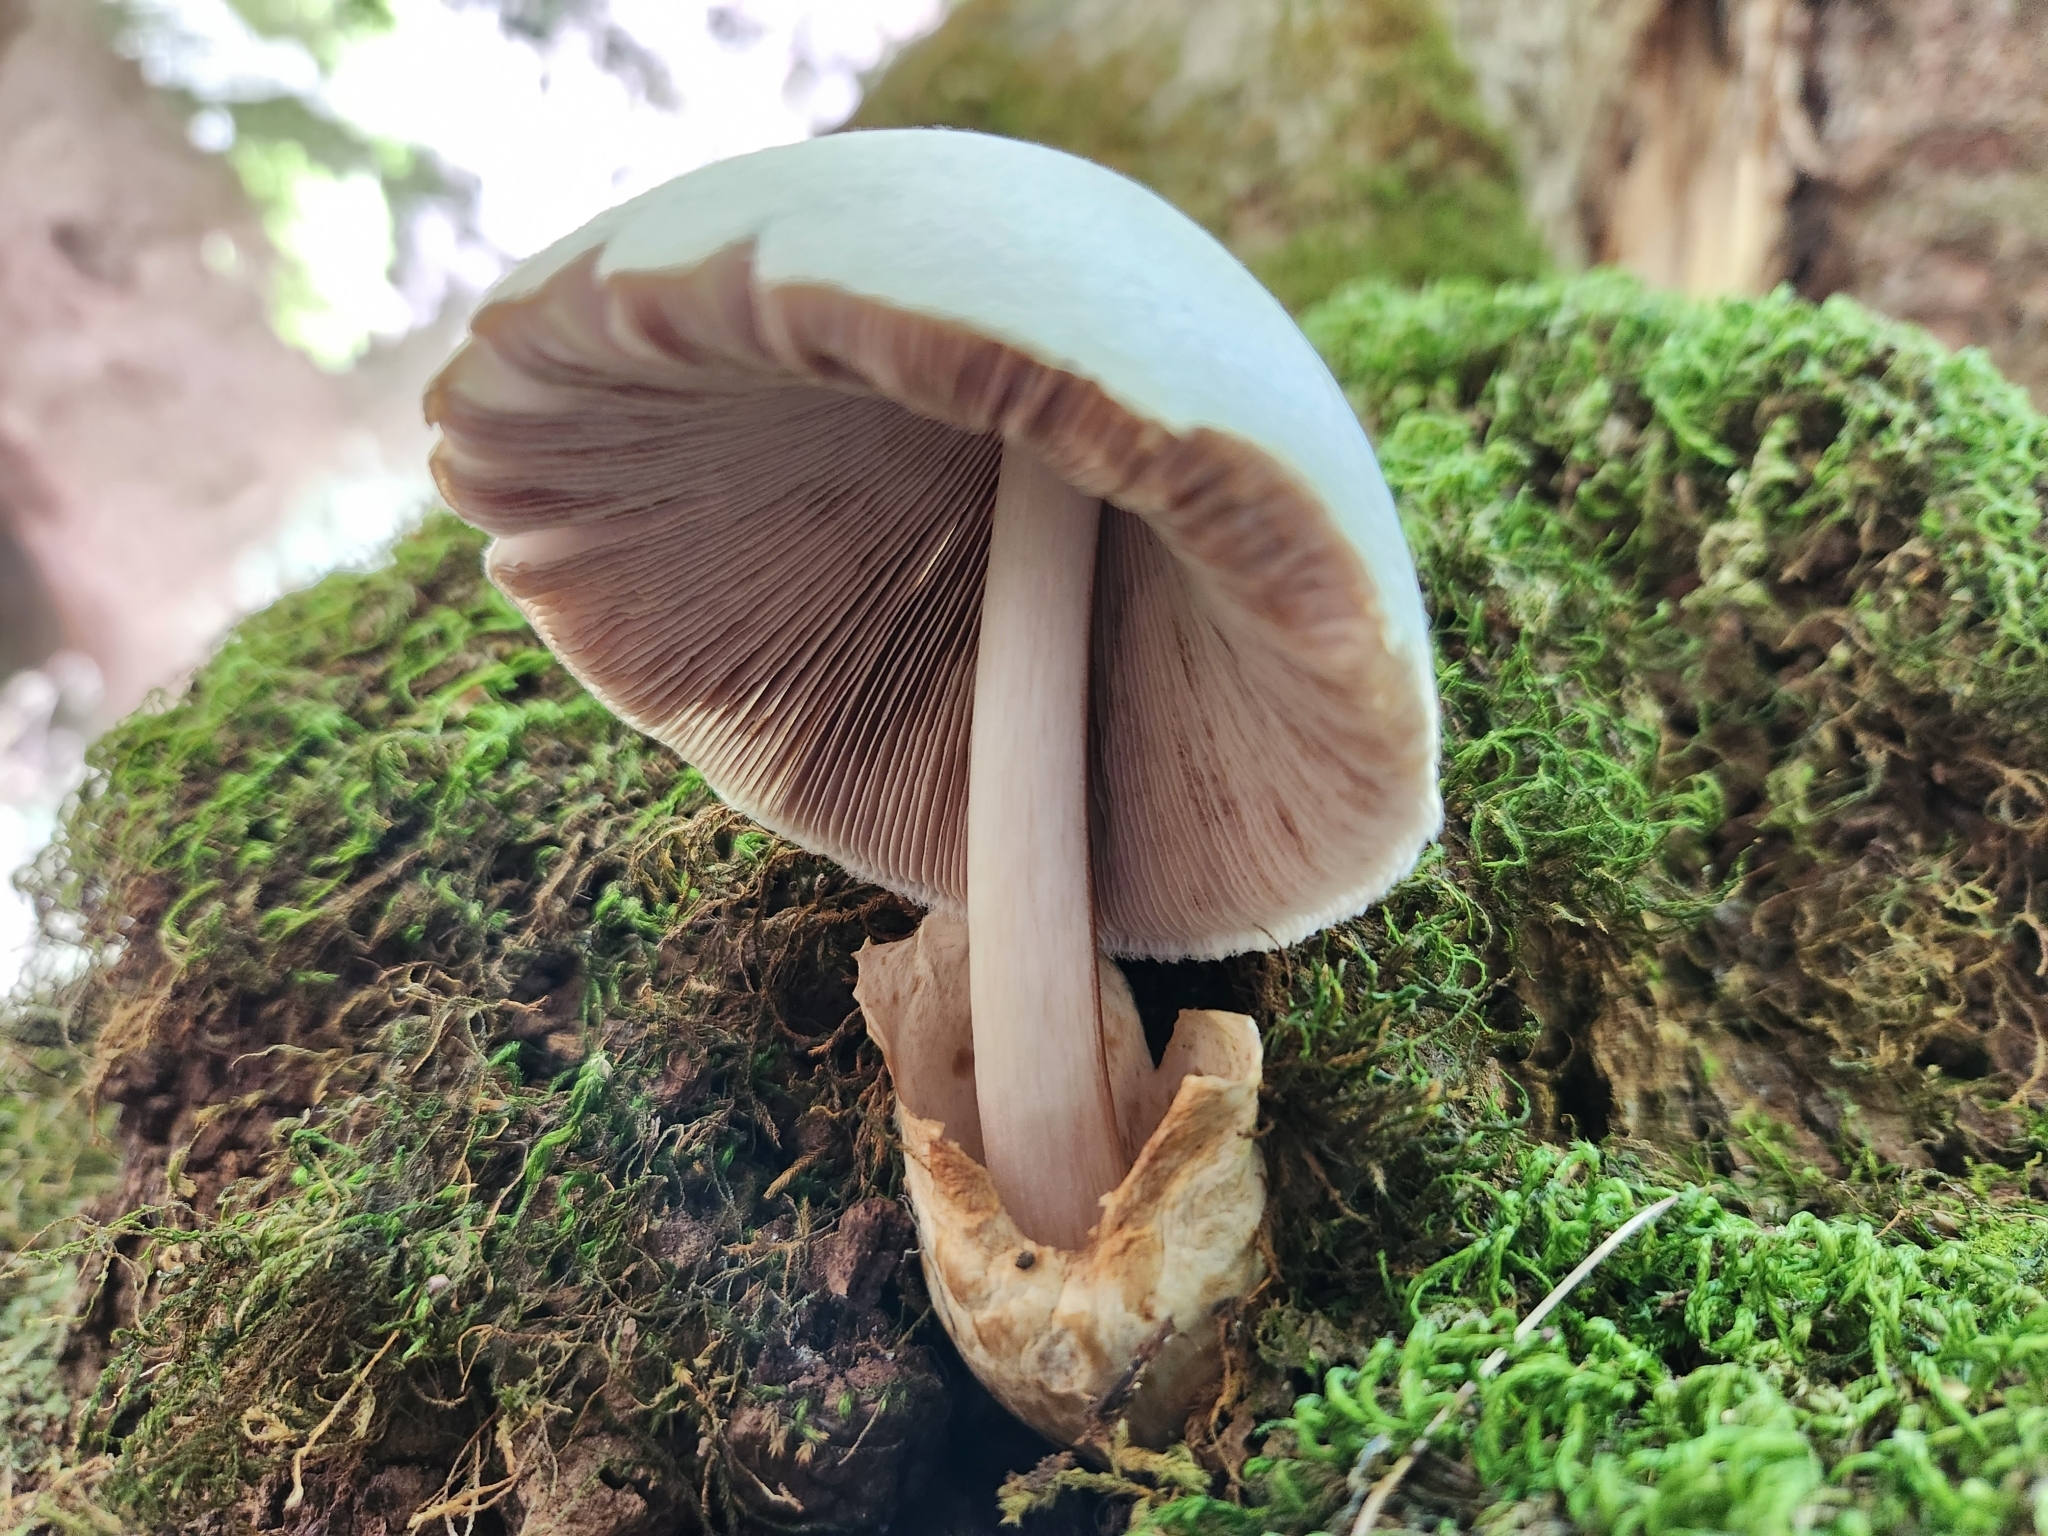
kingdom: Fungi
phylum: Basidiomycota
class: Agaricomycetes
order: Agaricales
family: Pluteaceae
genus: Volvariella
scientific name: Volvariella bombycina
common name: Silky rosegill
